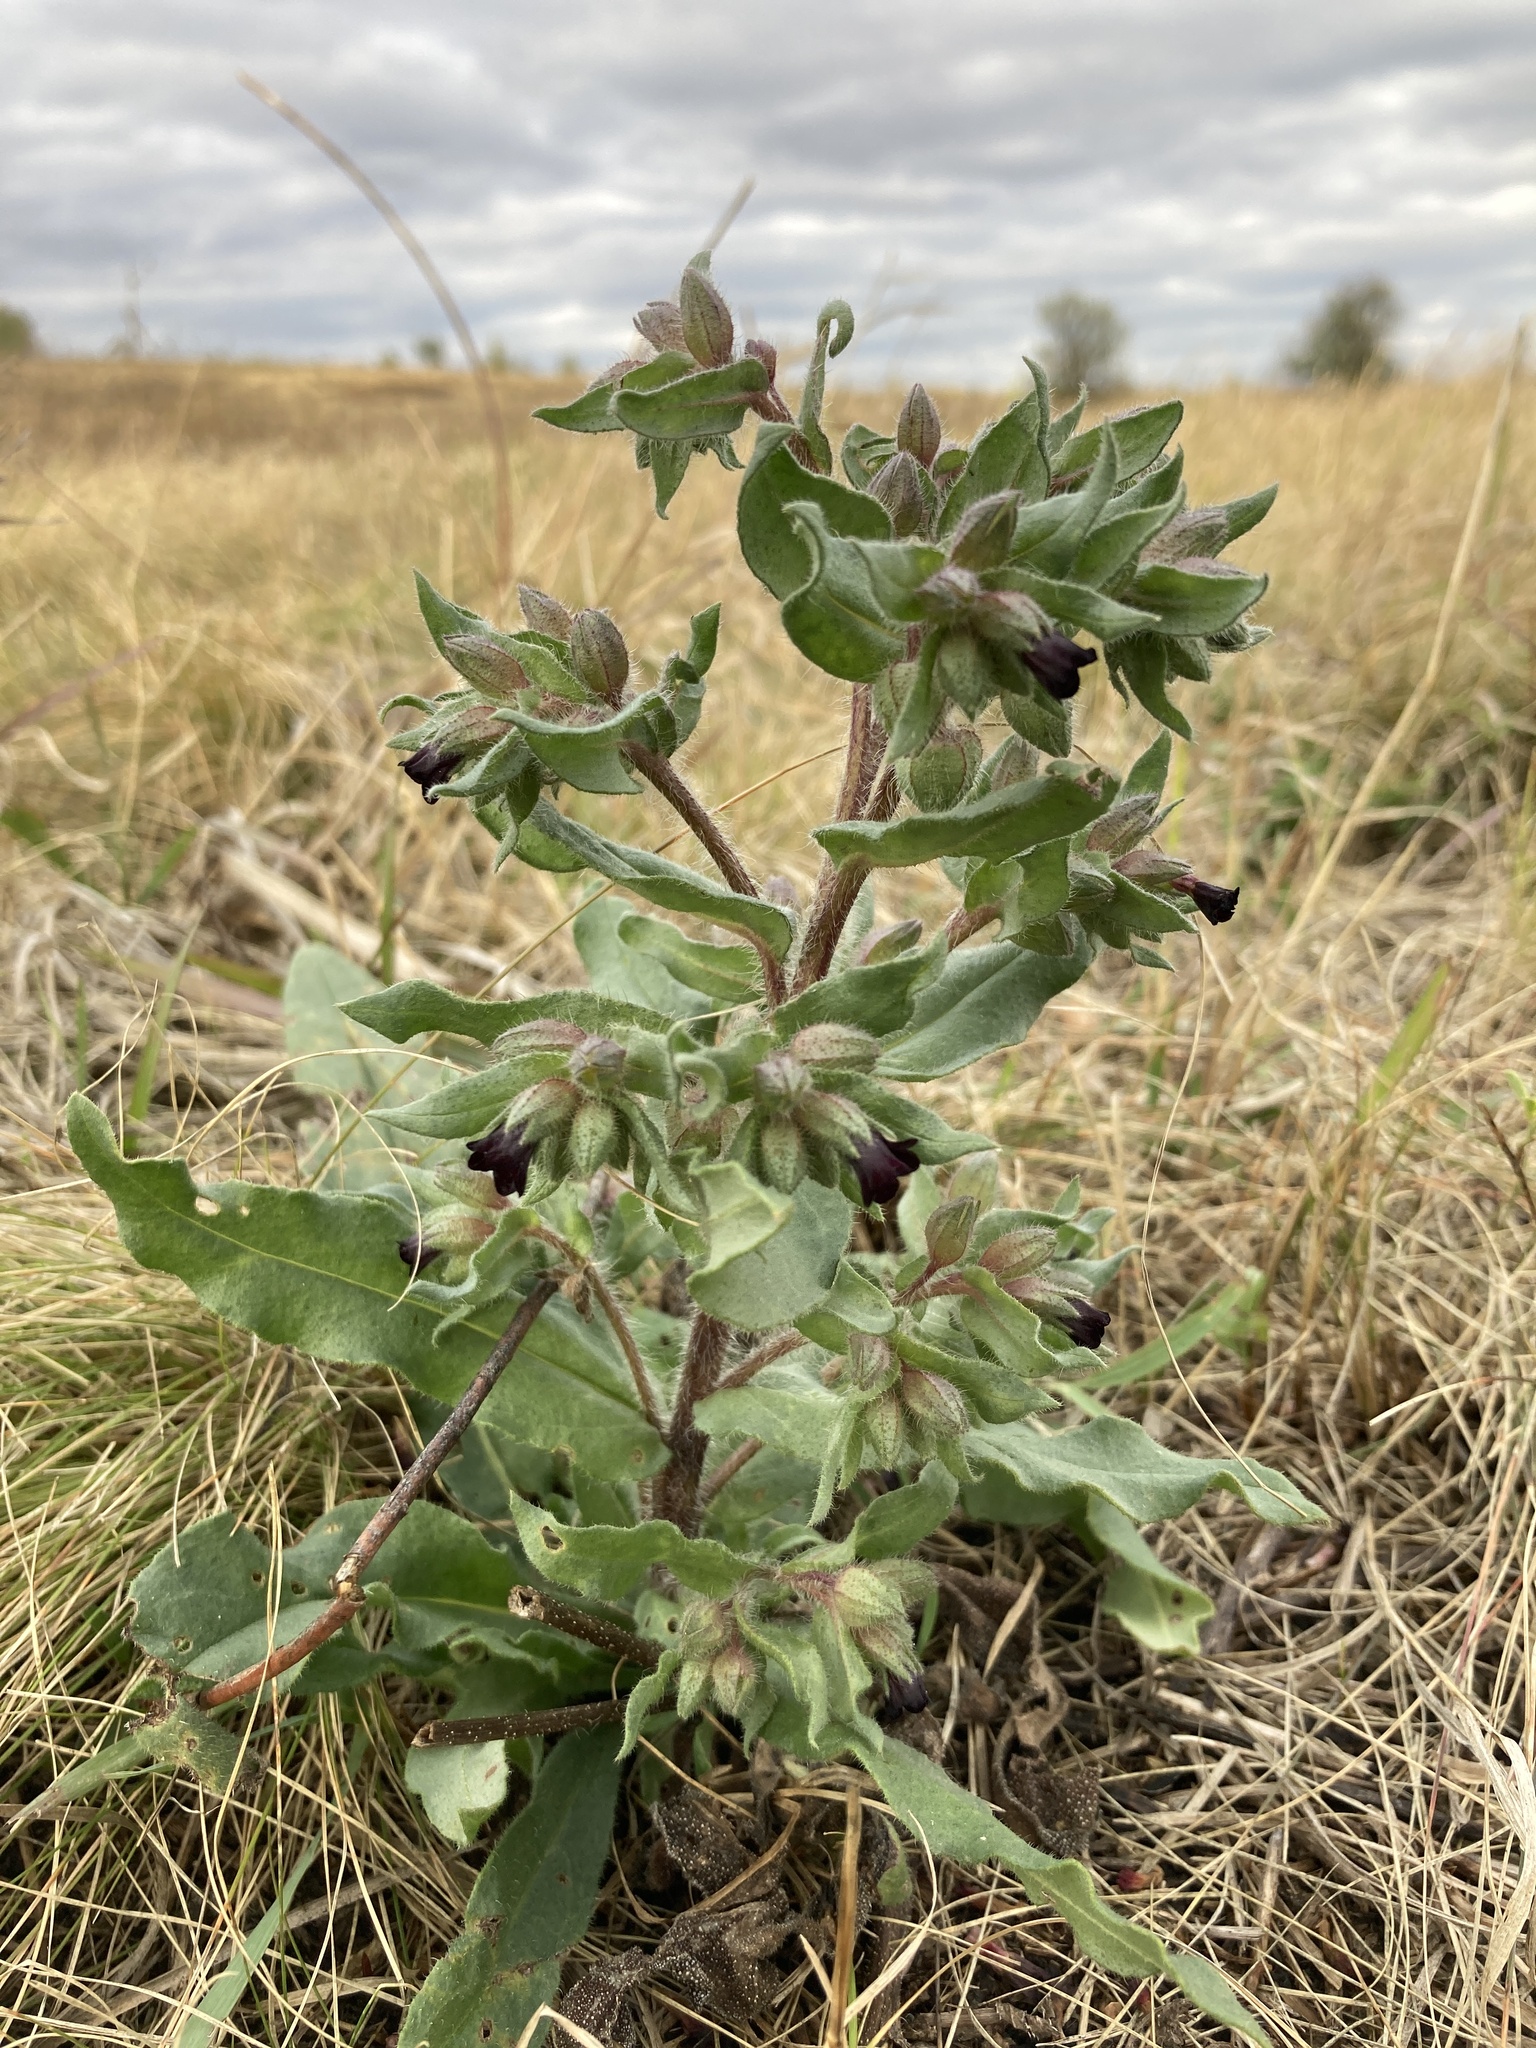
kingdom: Plantae
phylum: Tracheophyta
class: Magnoliopsida
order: Boraginales
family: Boraginaceae
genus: Nonea
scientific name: Nonea pulla
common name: Brown nonea
